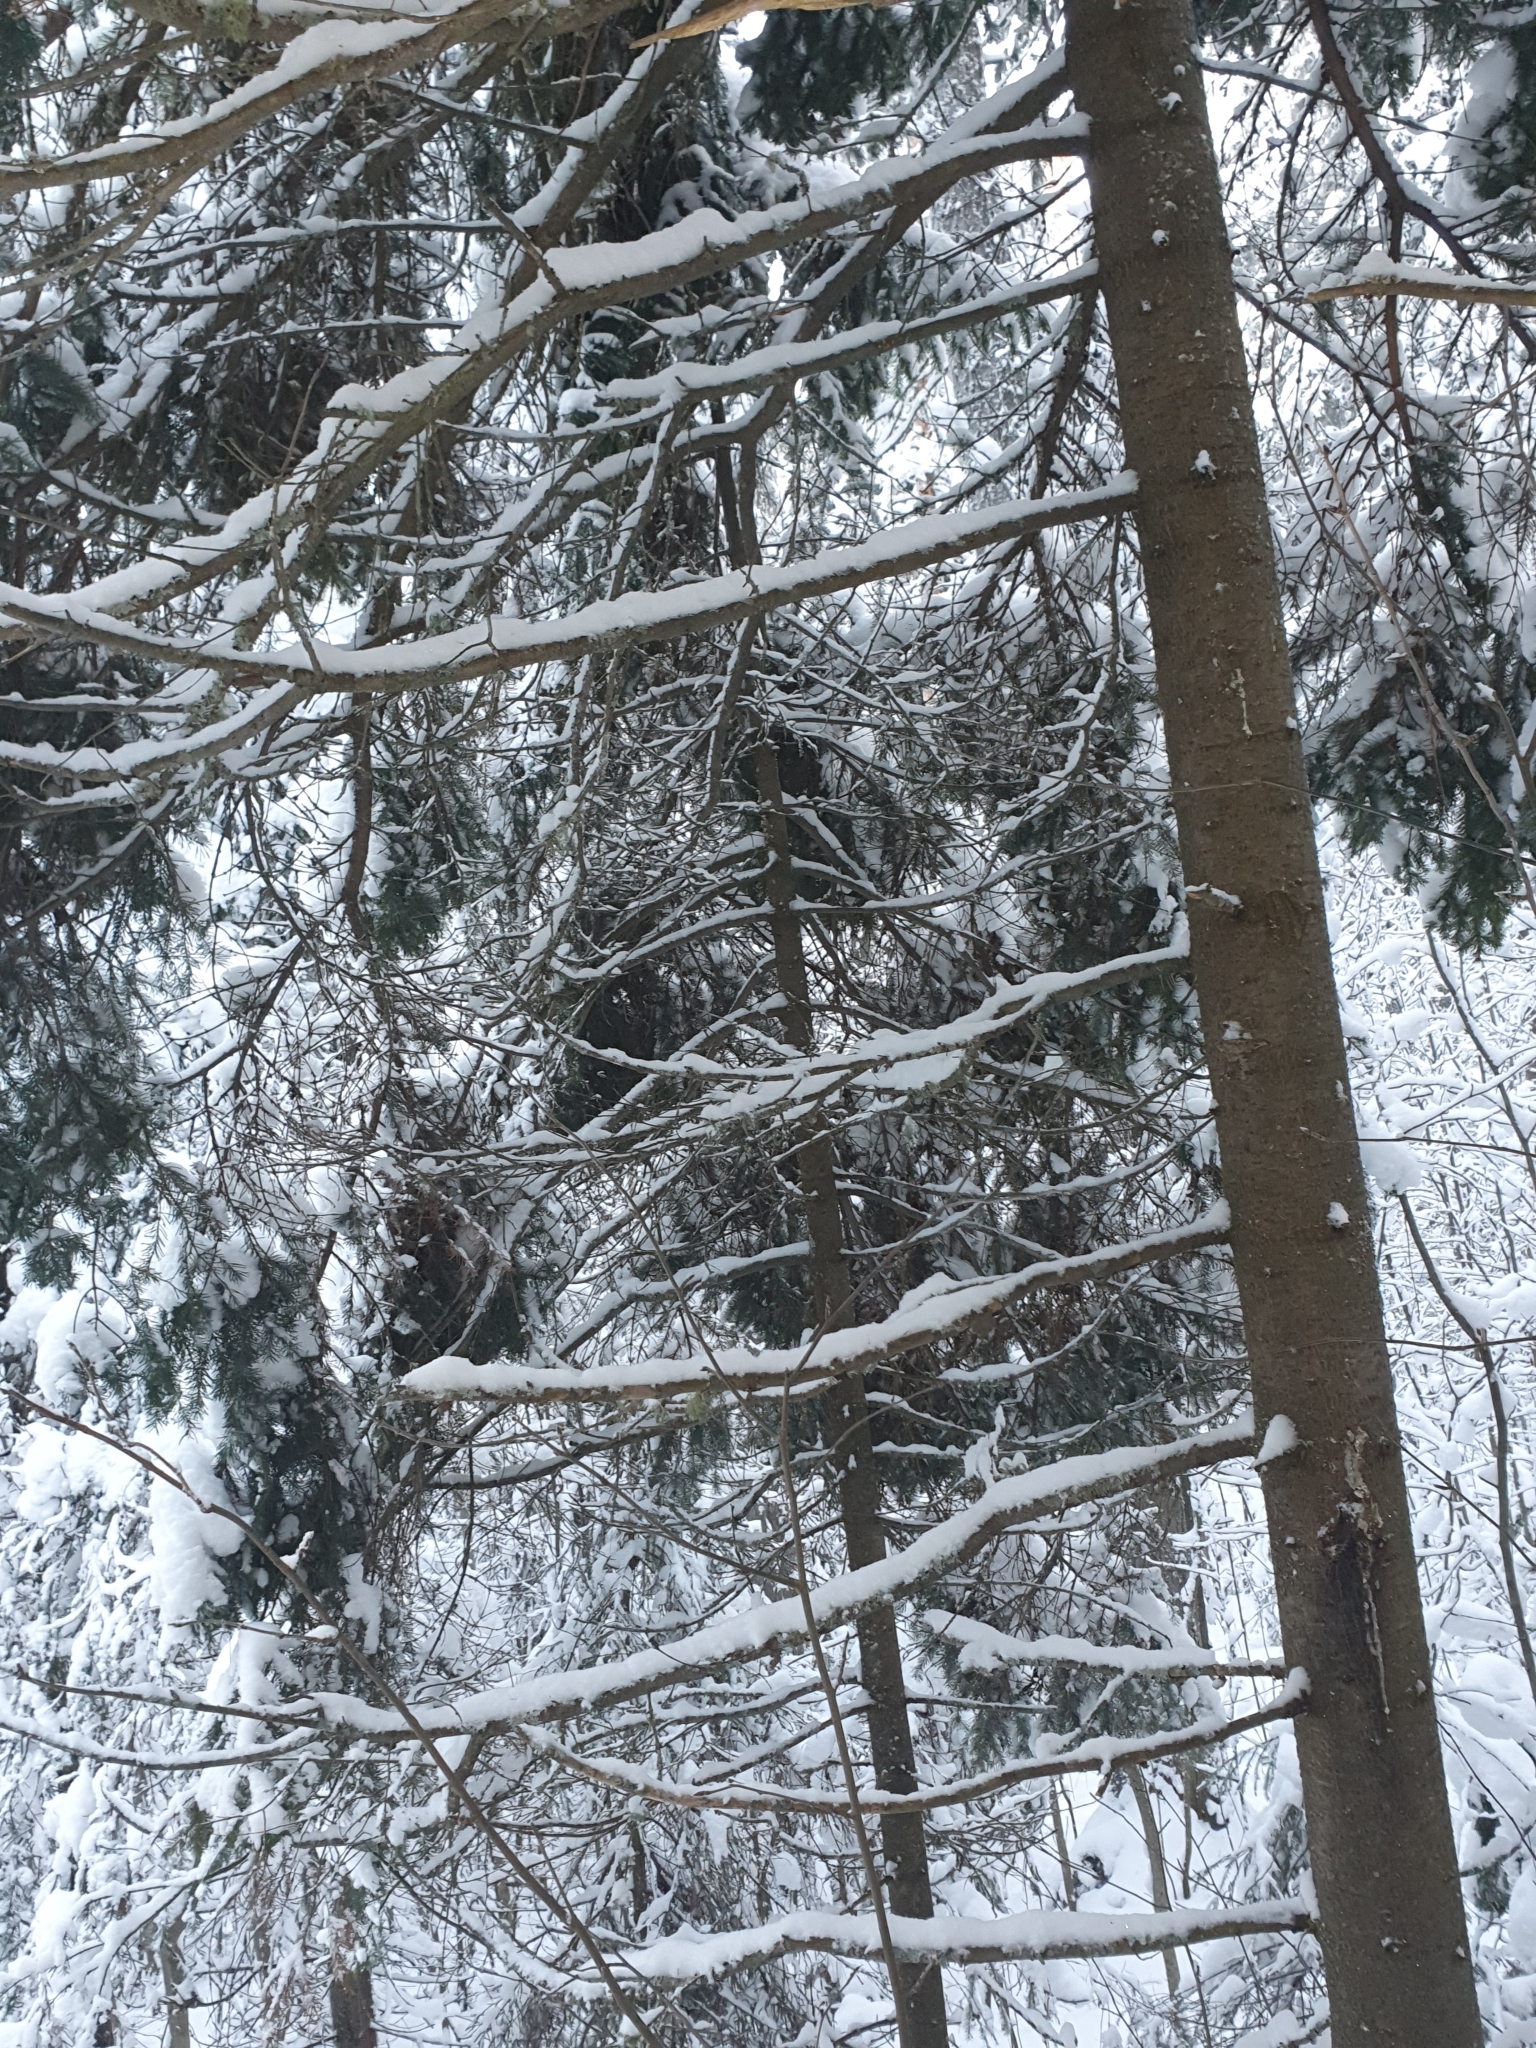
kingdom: Plantae
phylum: Tracheophyta
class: Pinopsida
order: Pinales
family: Pinaceae
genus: Picea
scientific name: Picea obovata
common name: Siberian spruce
